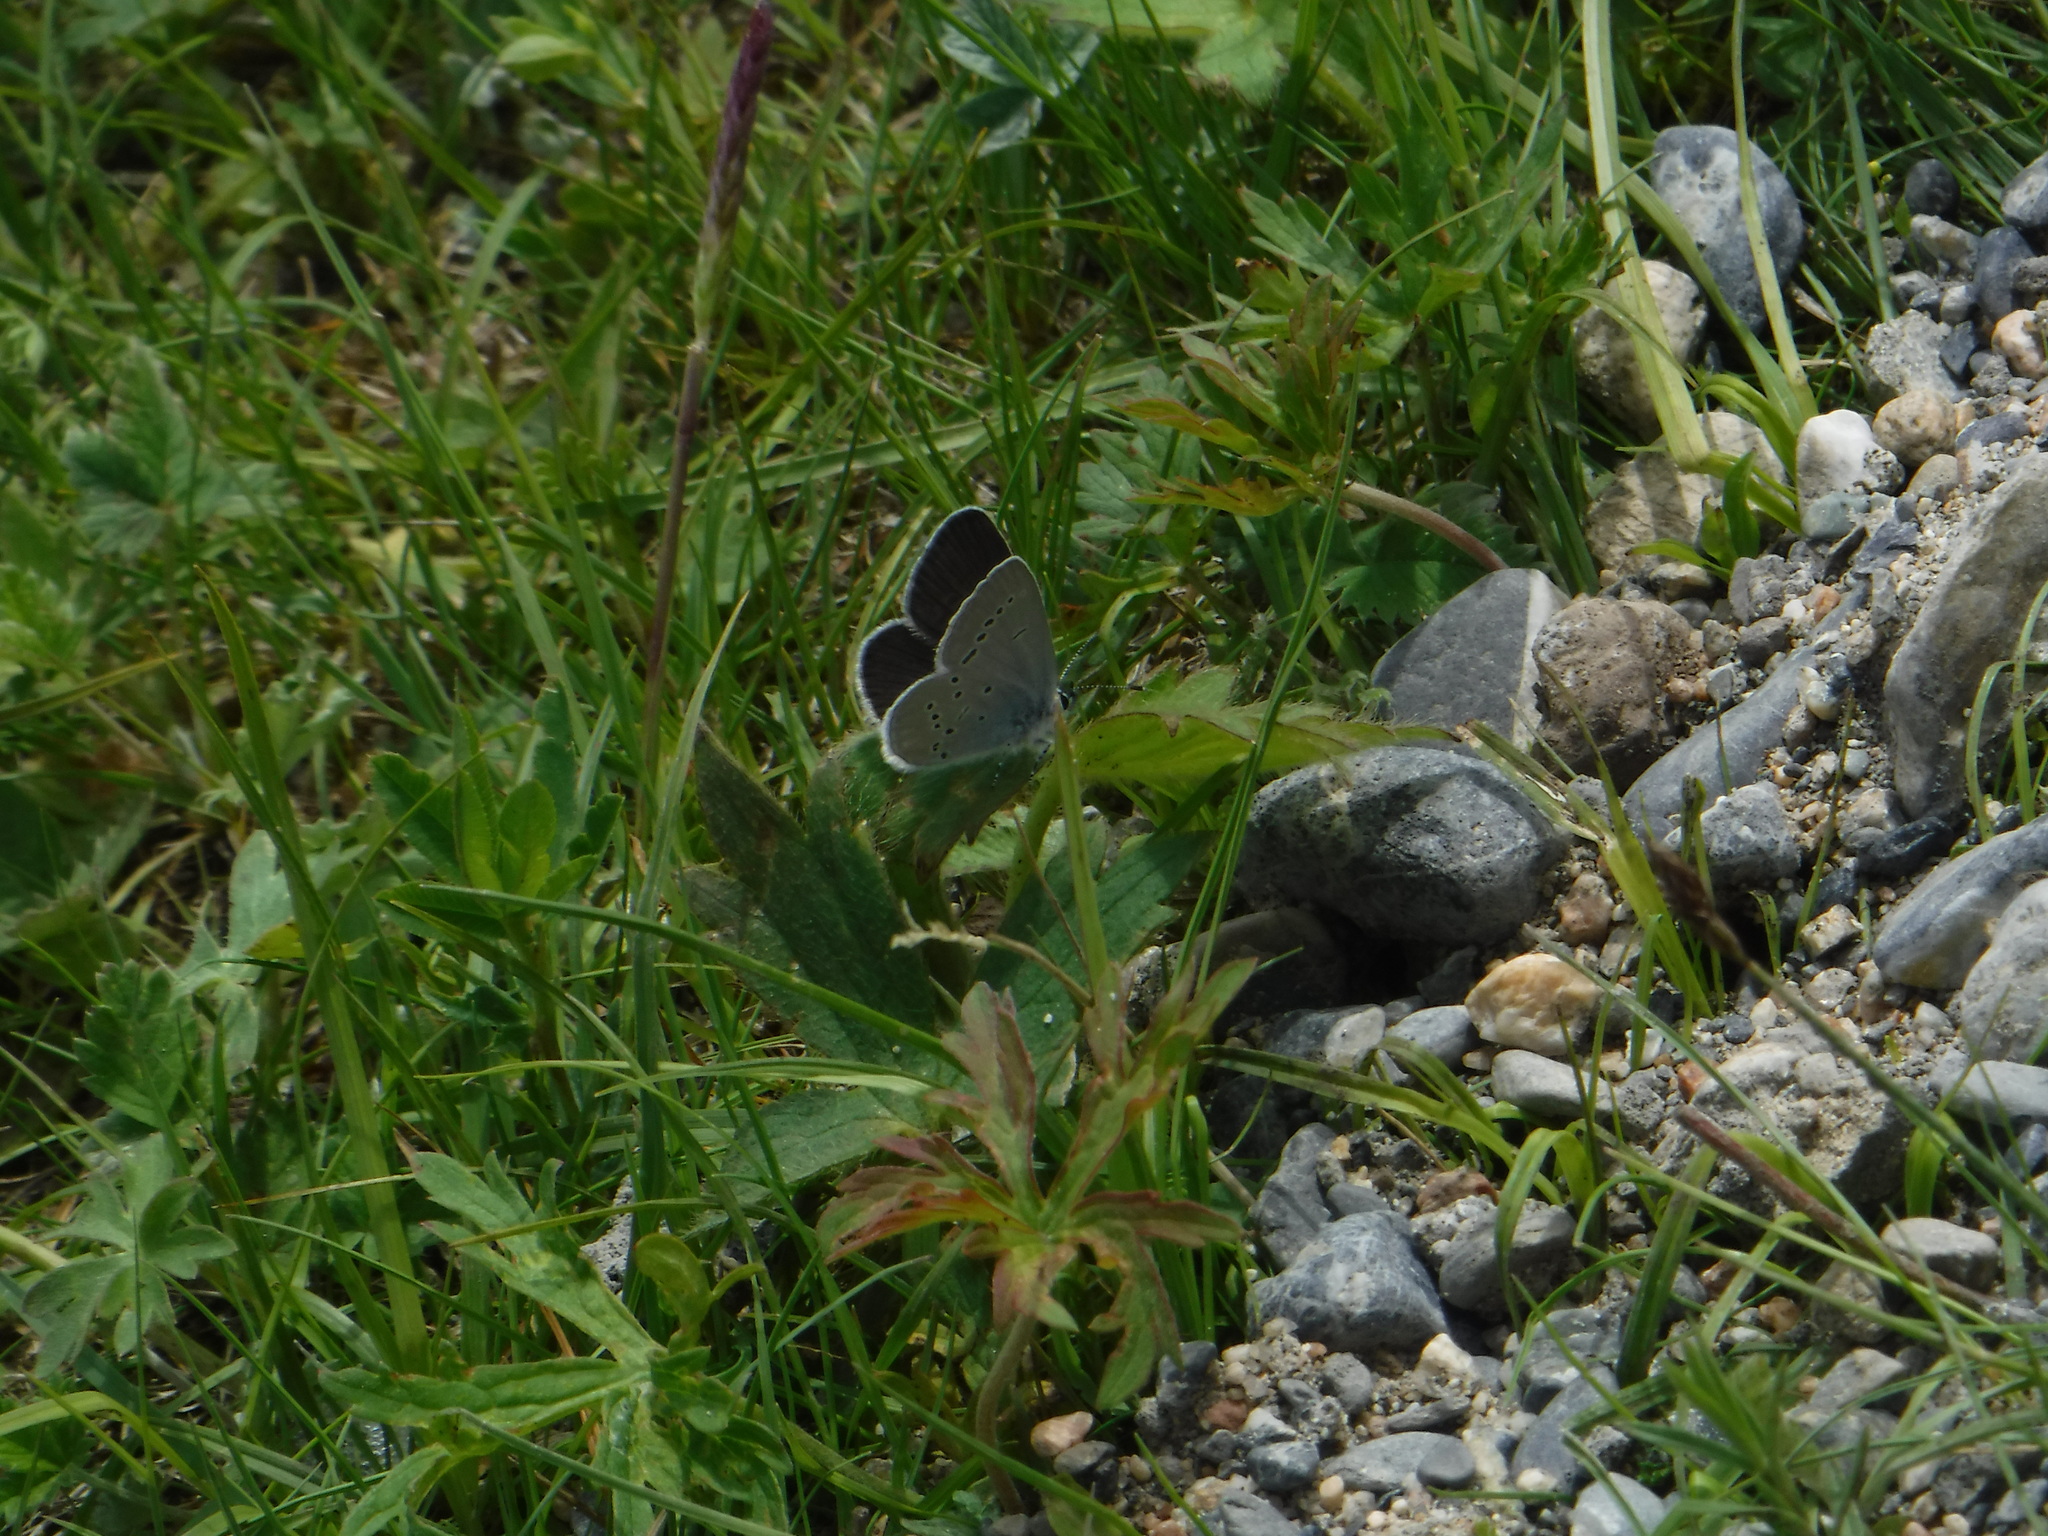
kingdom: Animalia
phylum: Arthropoda
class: Insecta
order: Lepidoptera
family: Lycaenidae
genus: Cupido
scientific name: Cupido minimus
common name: Small blue
